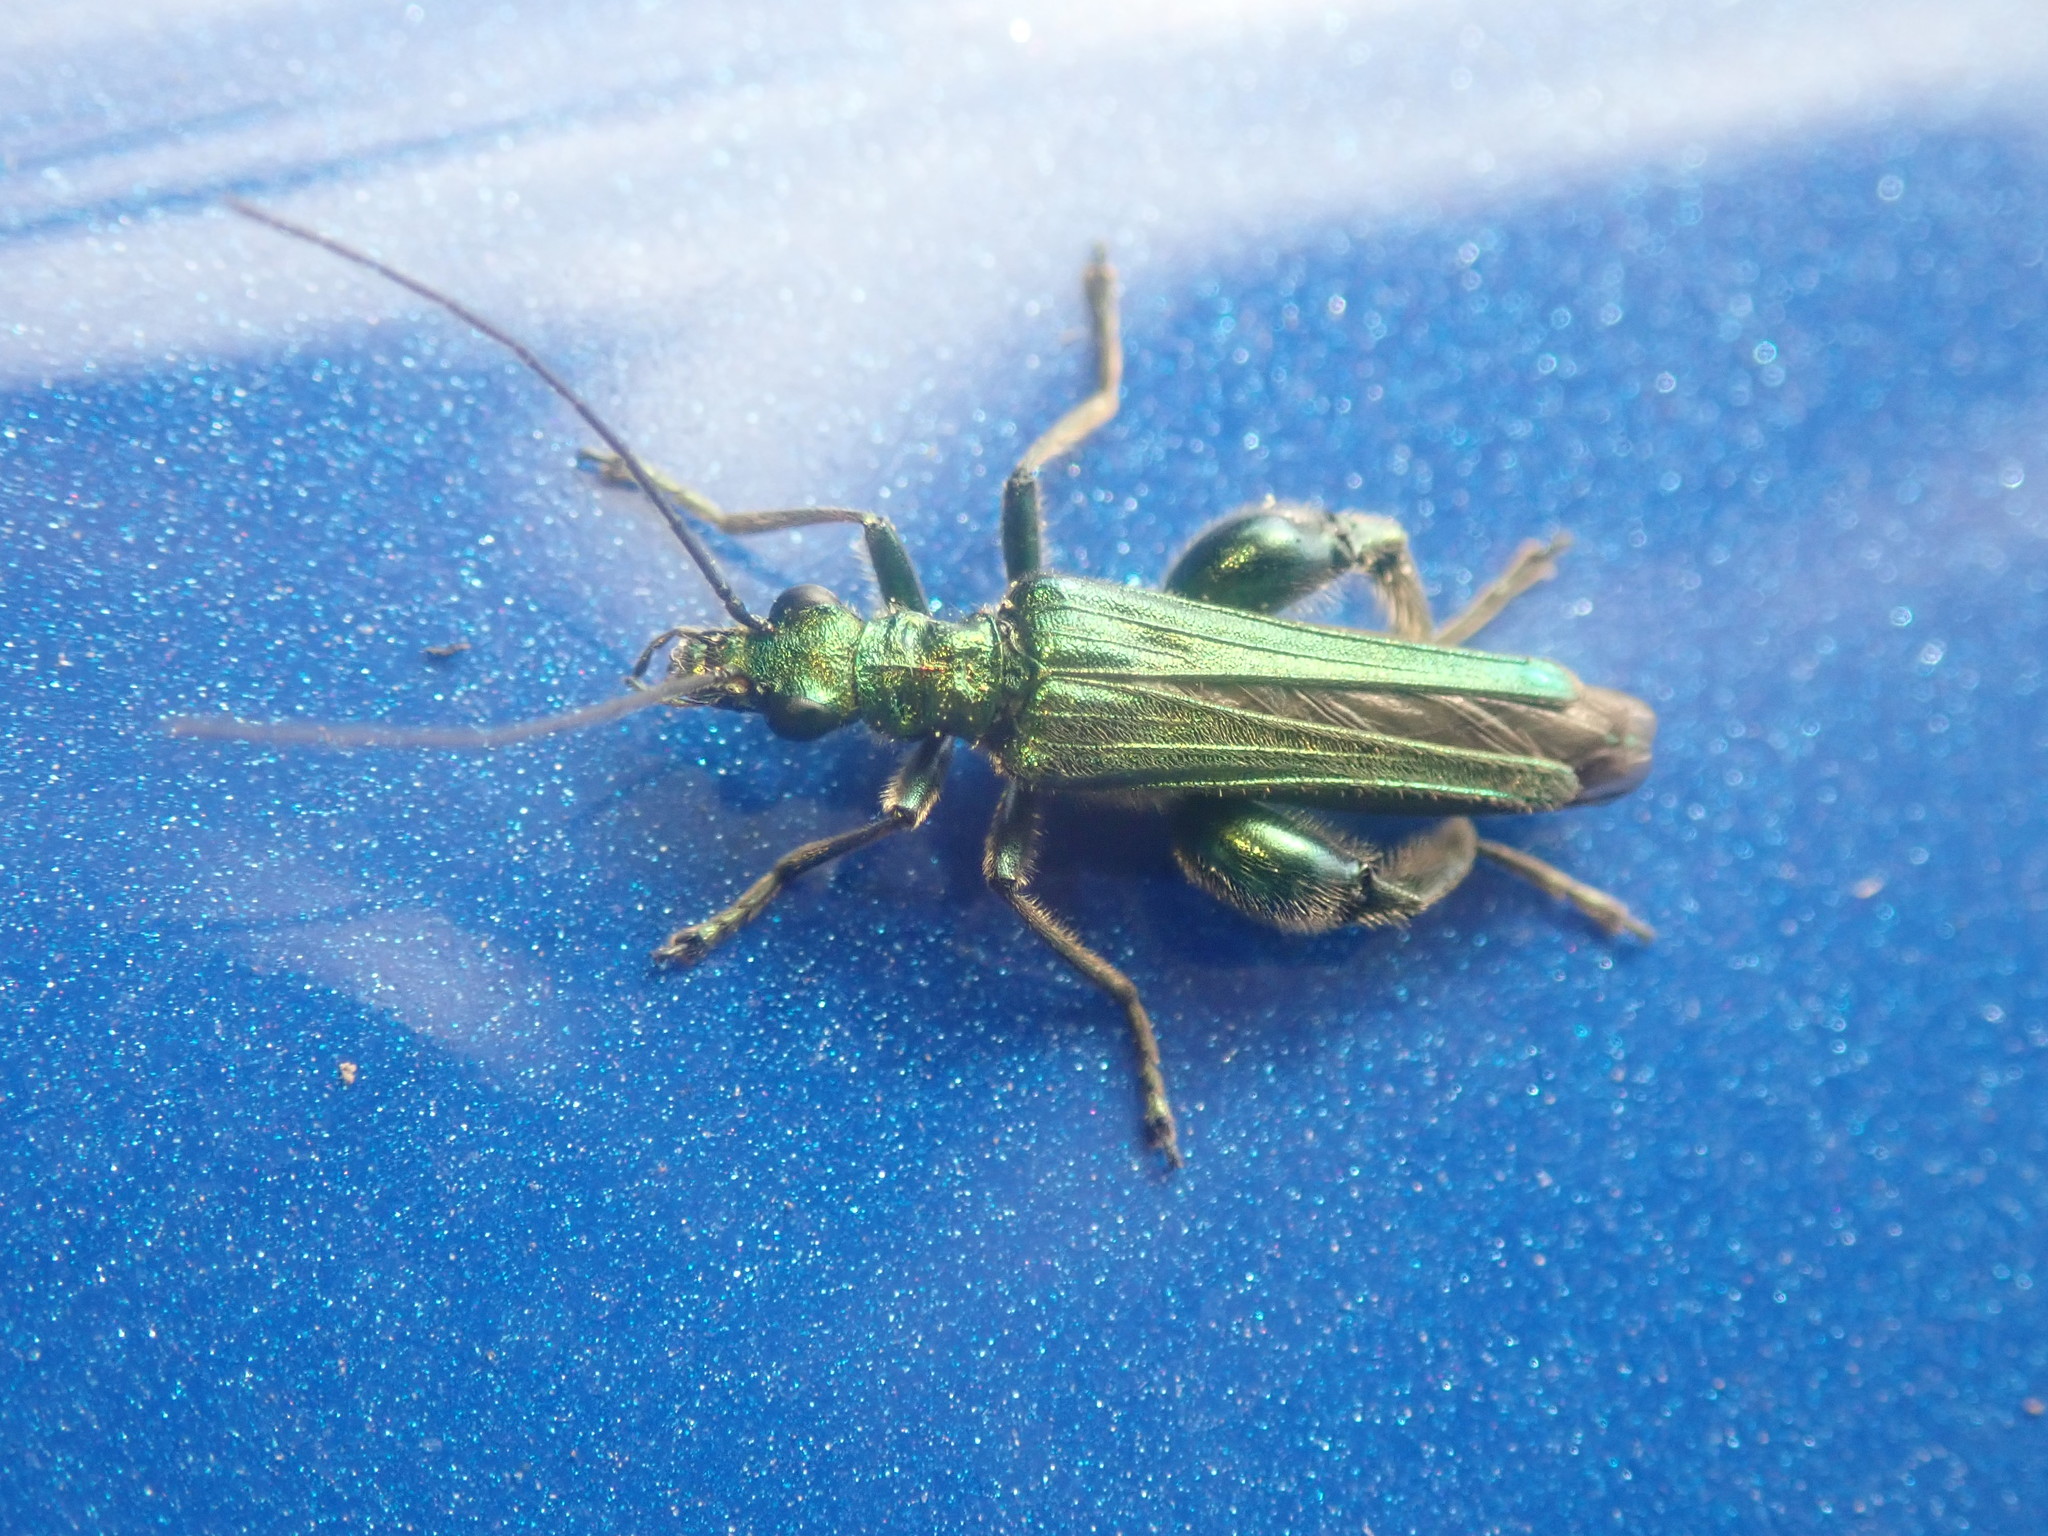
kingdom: Animalia
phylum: Arthropoda
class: Insecta
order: Coleoptera
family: Oedemeridae
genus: Oedemera
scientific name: Oedemera nobilis
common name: Swollen-thighed beetle
